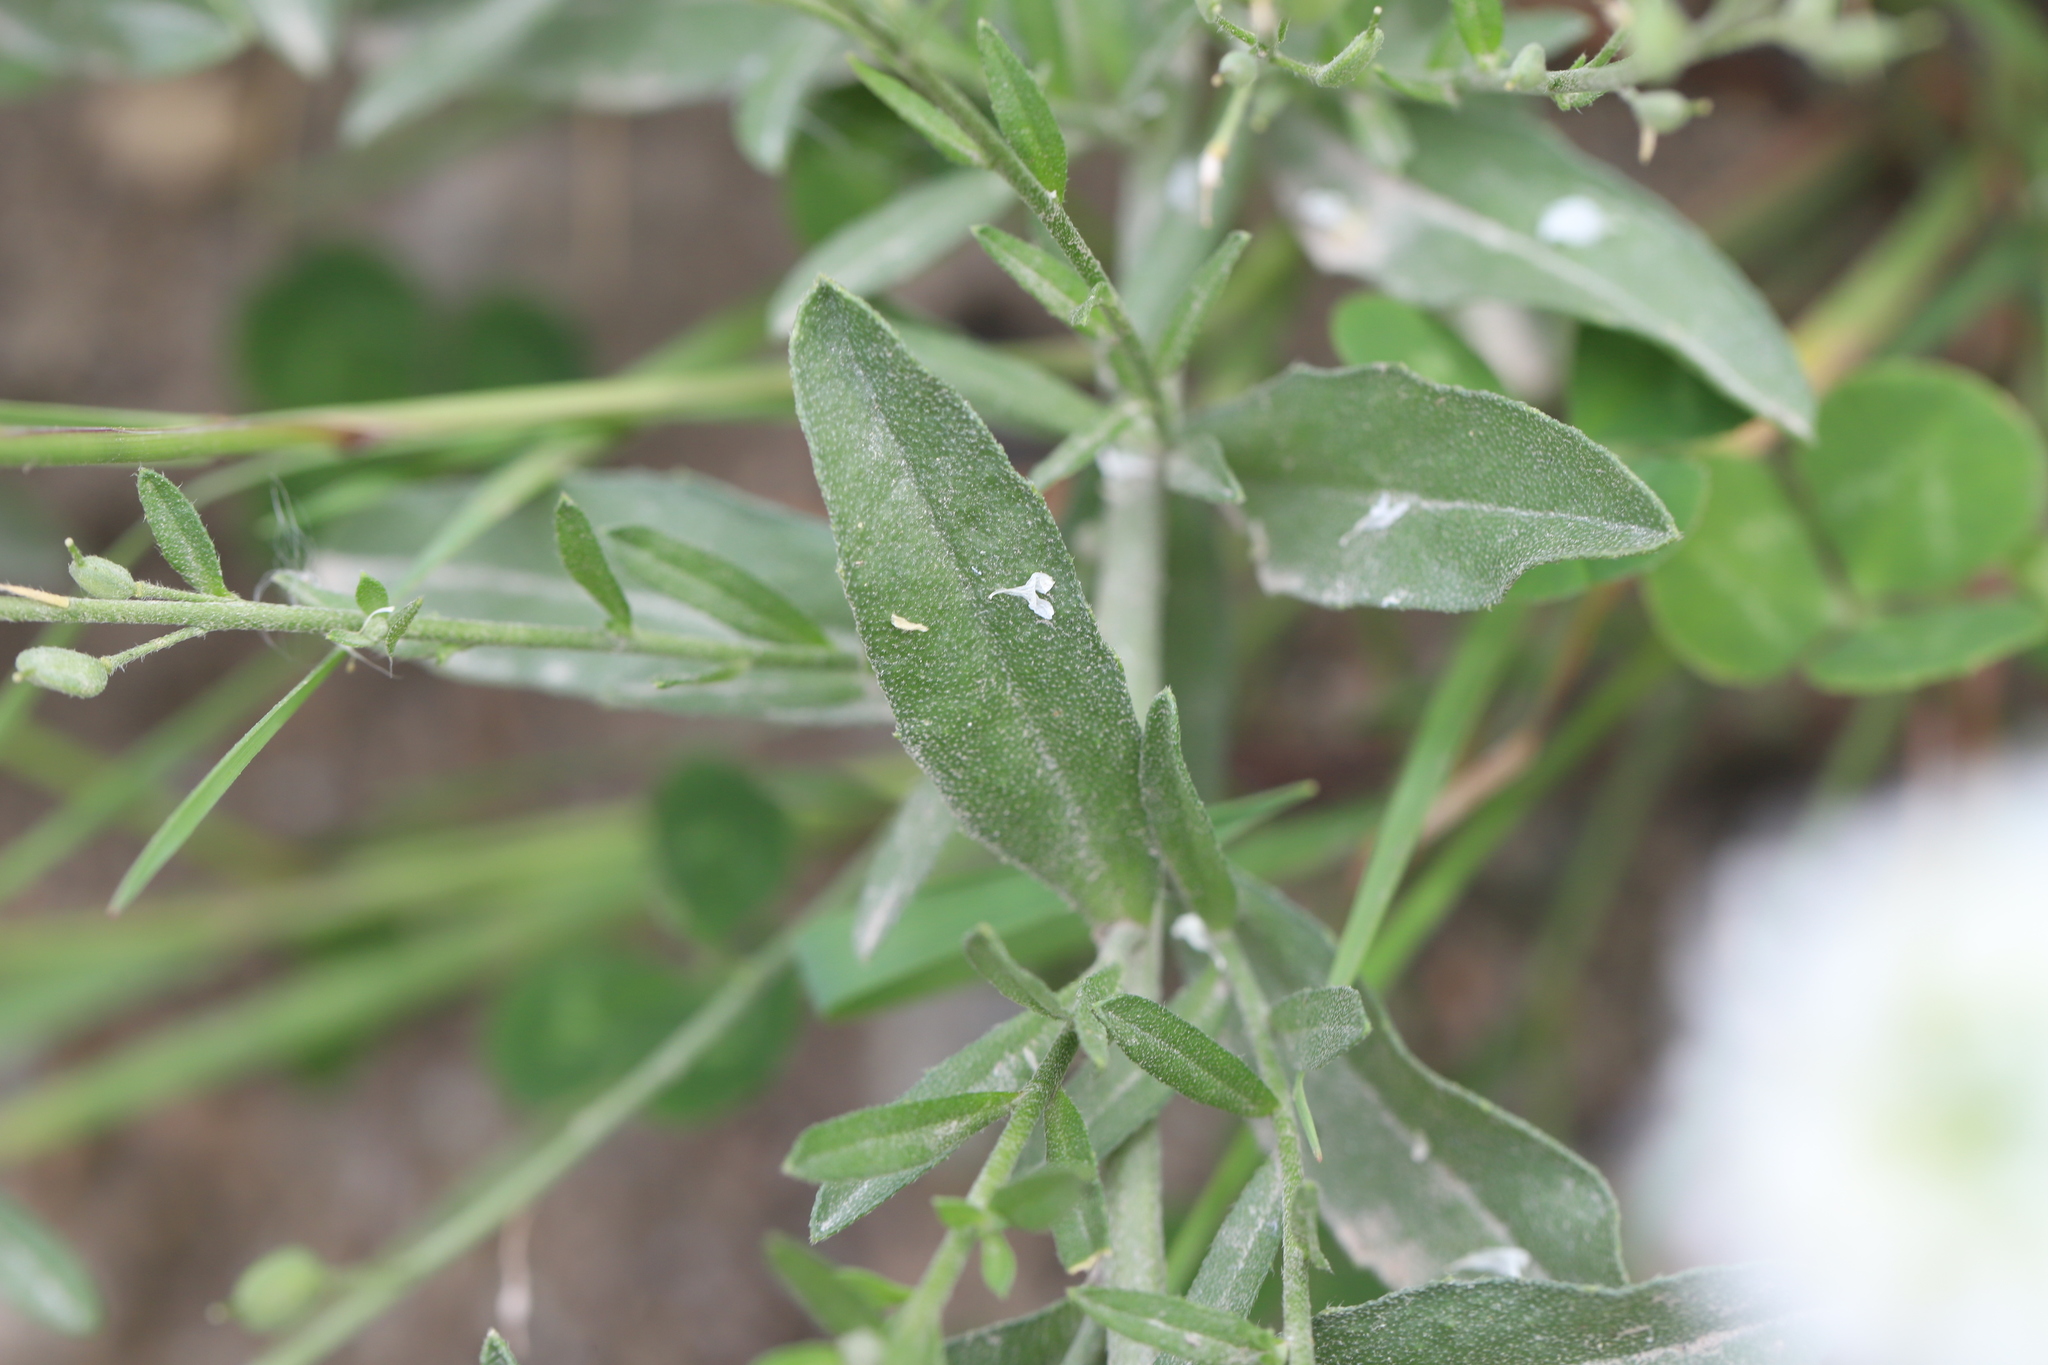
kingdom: Plantae
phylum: Tracheophyta
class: Magnoliopsida
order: Brassicales
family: Brassicaceae
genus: Berteroa
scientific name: Berteroa incana
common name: Hoary alison
